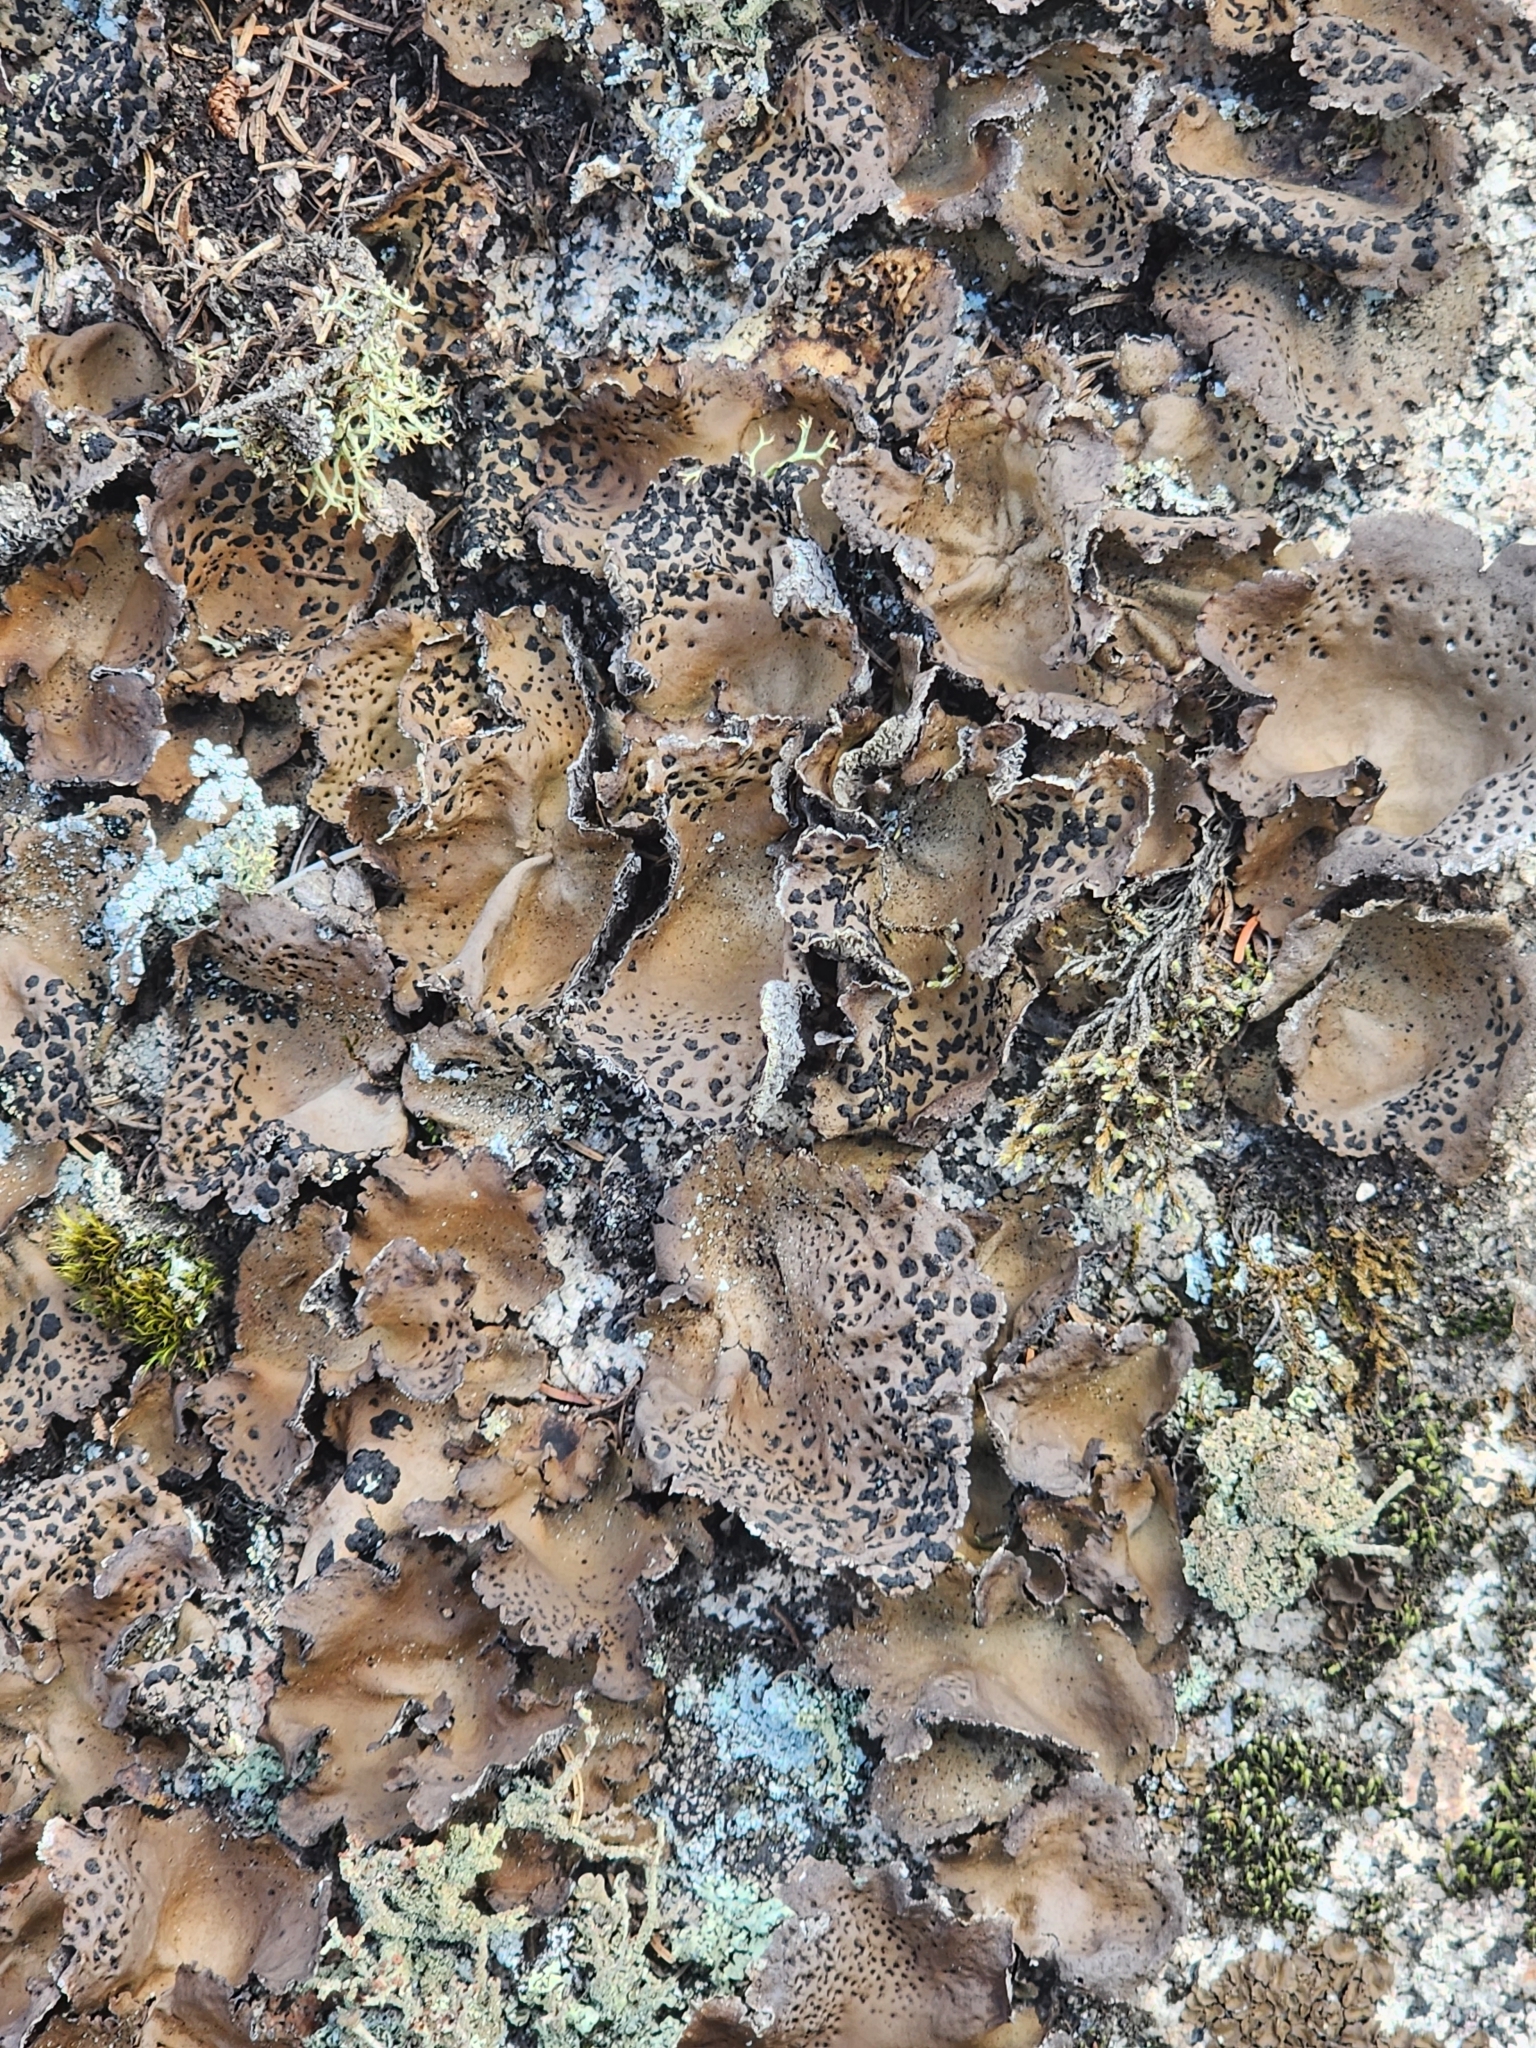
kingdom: Fungi
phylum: Ascomycota
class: Lecanoromycetes
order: Umbilicariales
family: Umbilicariaceae
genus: Umbilicaria
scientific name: Umbilicaria muhlenbergii
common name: Lesser rocktripe
